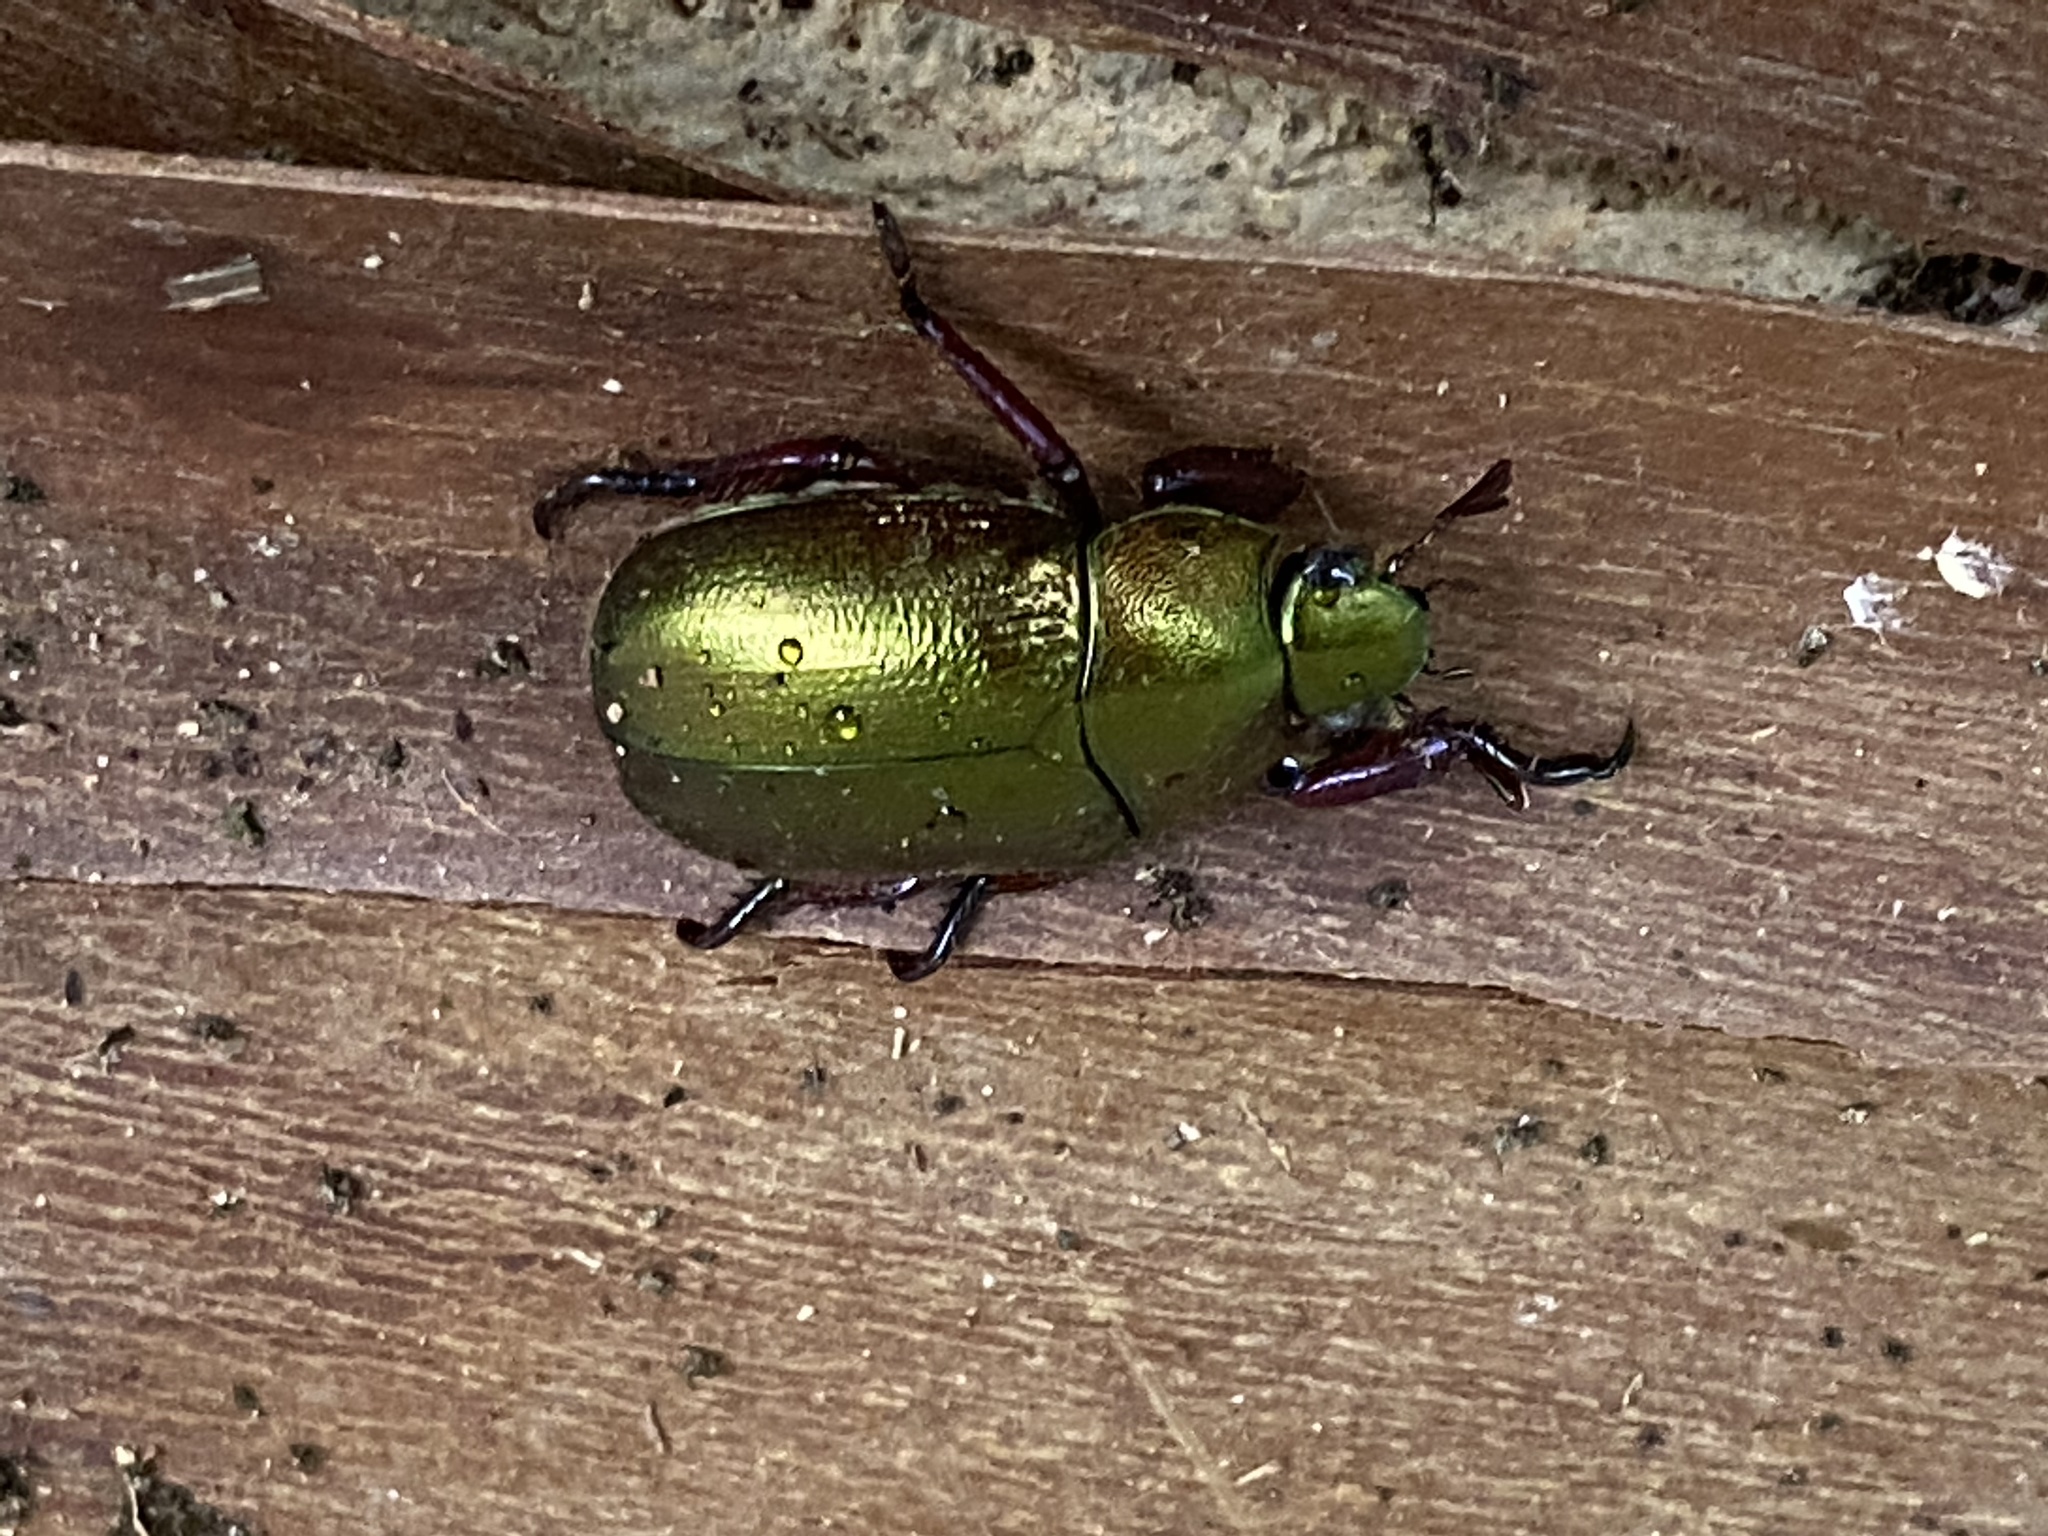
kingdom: Animalia
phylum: Arthropoda
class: Insecta
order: Coleoptera
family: Scarabaeidae
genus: Pelidnota
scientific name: Pelidnota cyanipes
